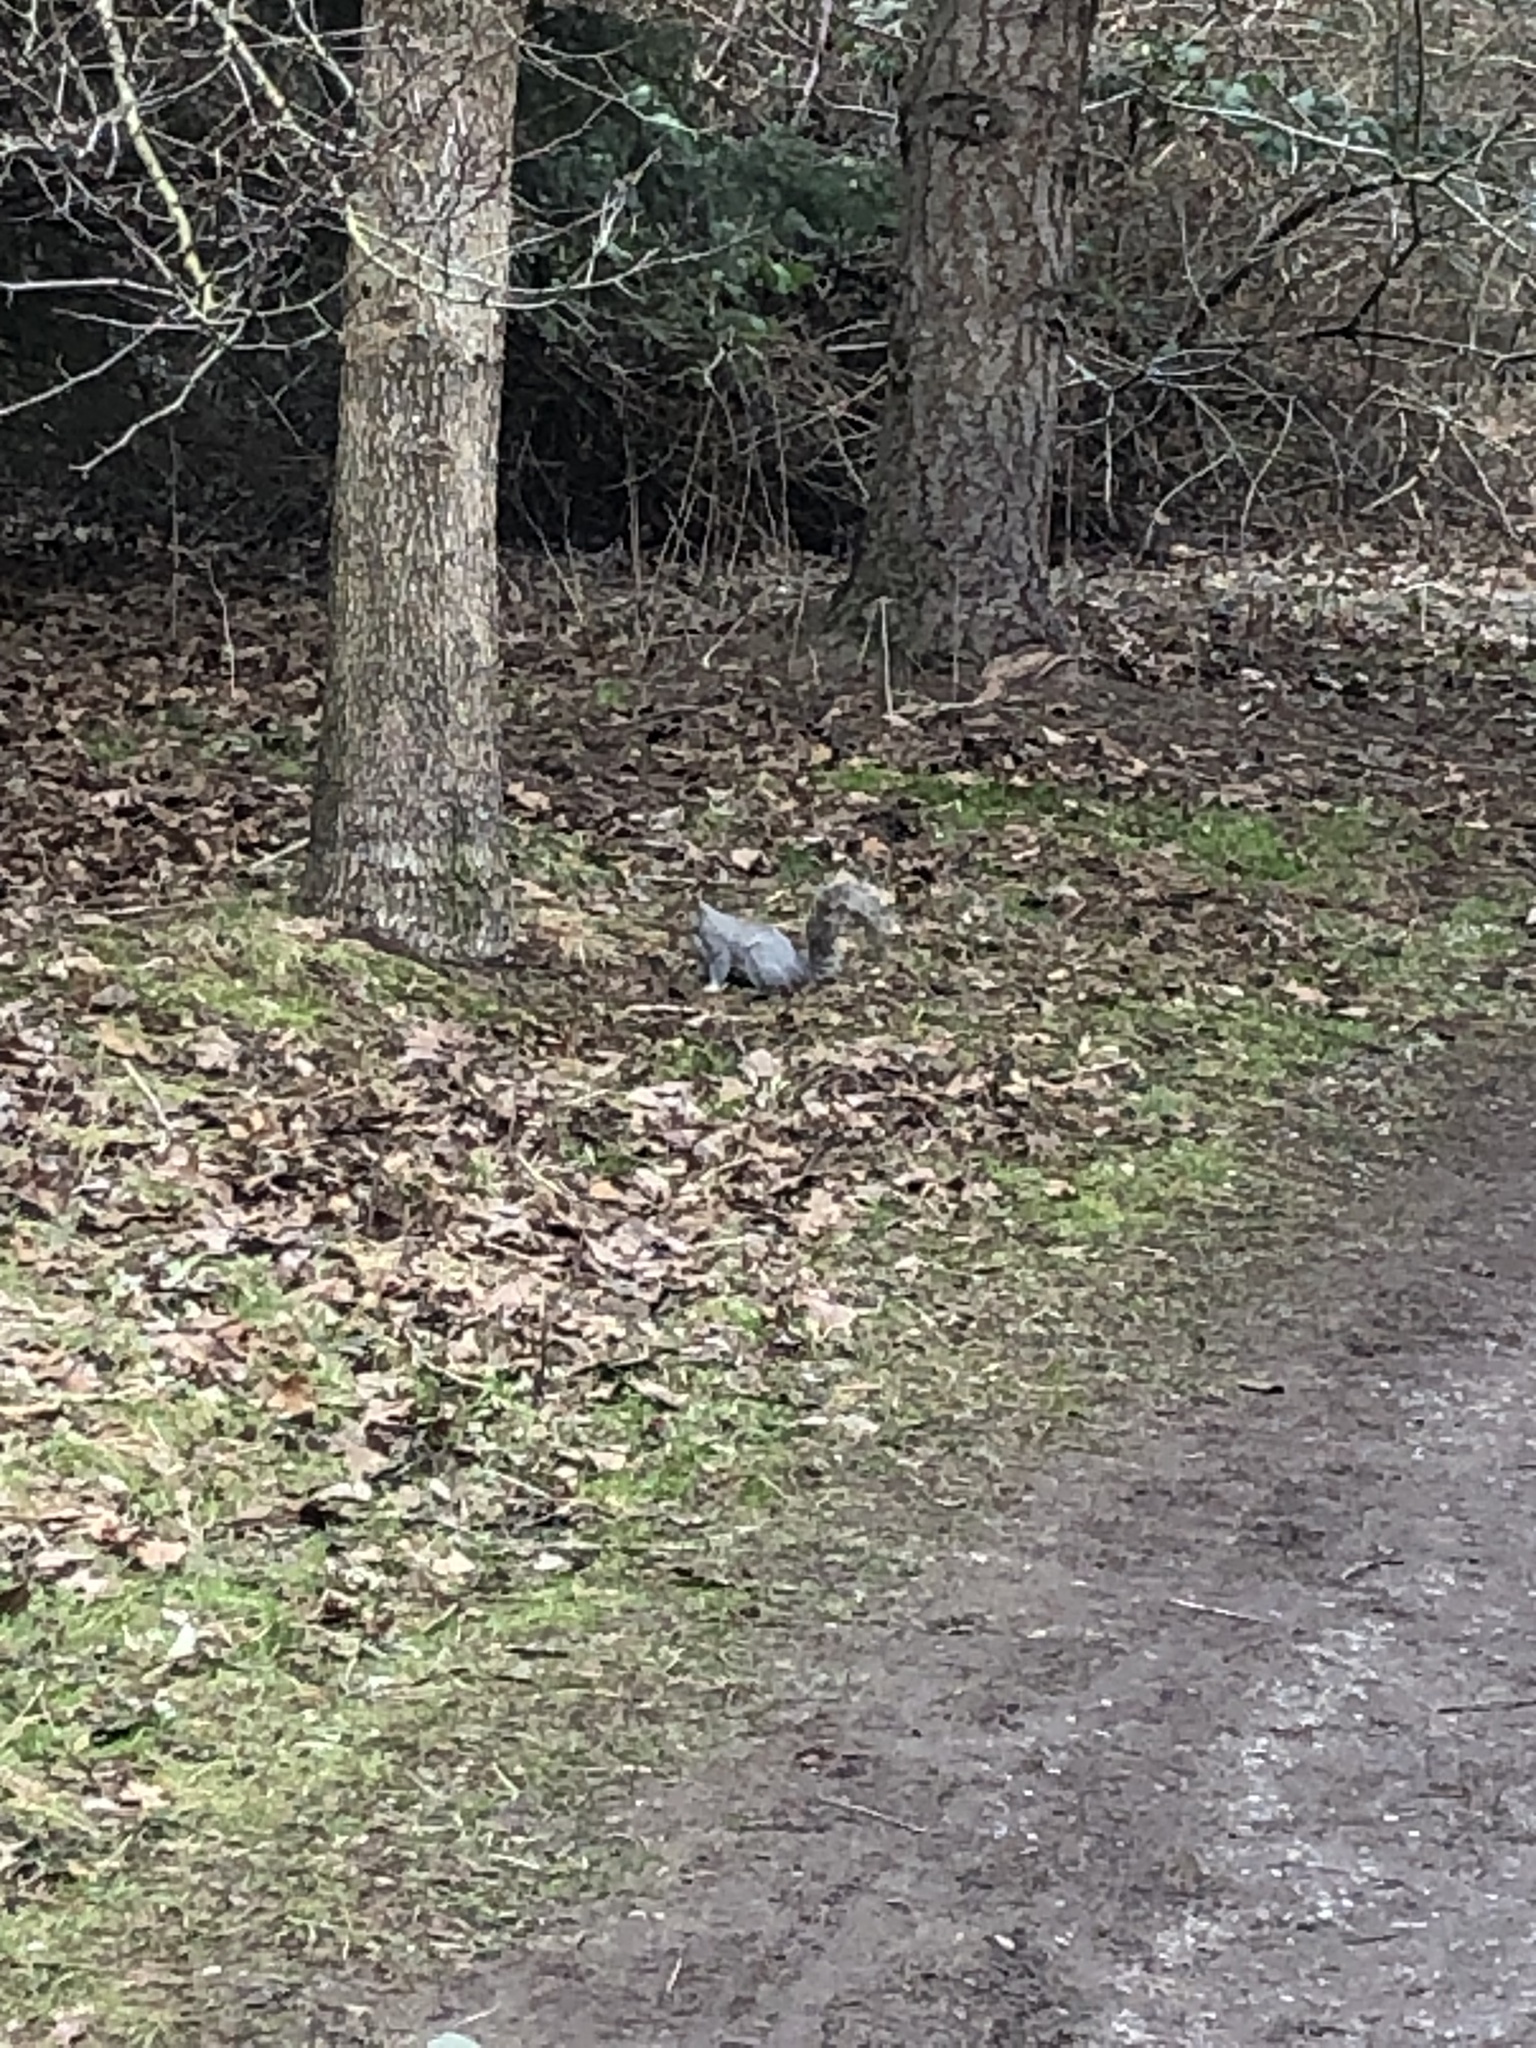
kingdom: Animalia
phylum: Chordata
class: Mammalia
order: Rodentia
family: Sciuridae
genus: Sciurus
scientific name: Sciurus carolinensis
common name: Eastern gray squirrel
